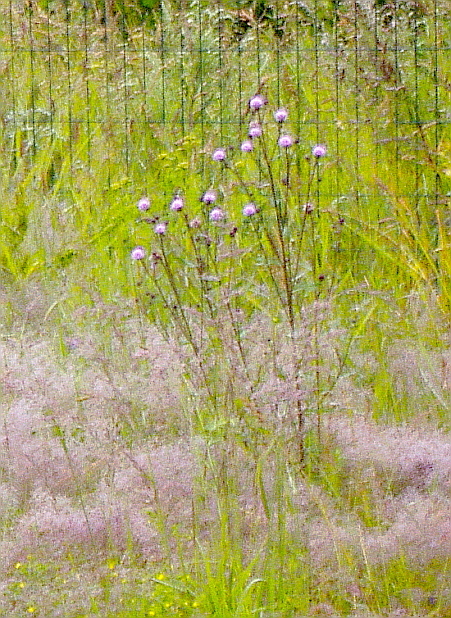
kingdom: Plantae
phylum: Tracheophyta
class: Magnoliopsida
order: Asterales
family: Asteraceae
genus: Cirsium
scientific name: Cirsium arvense
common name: Creeping thistle
